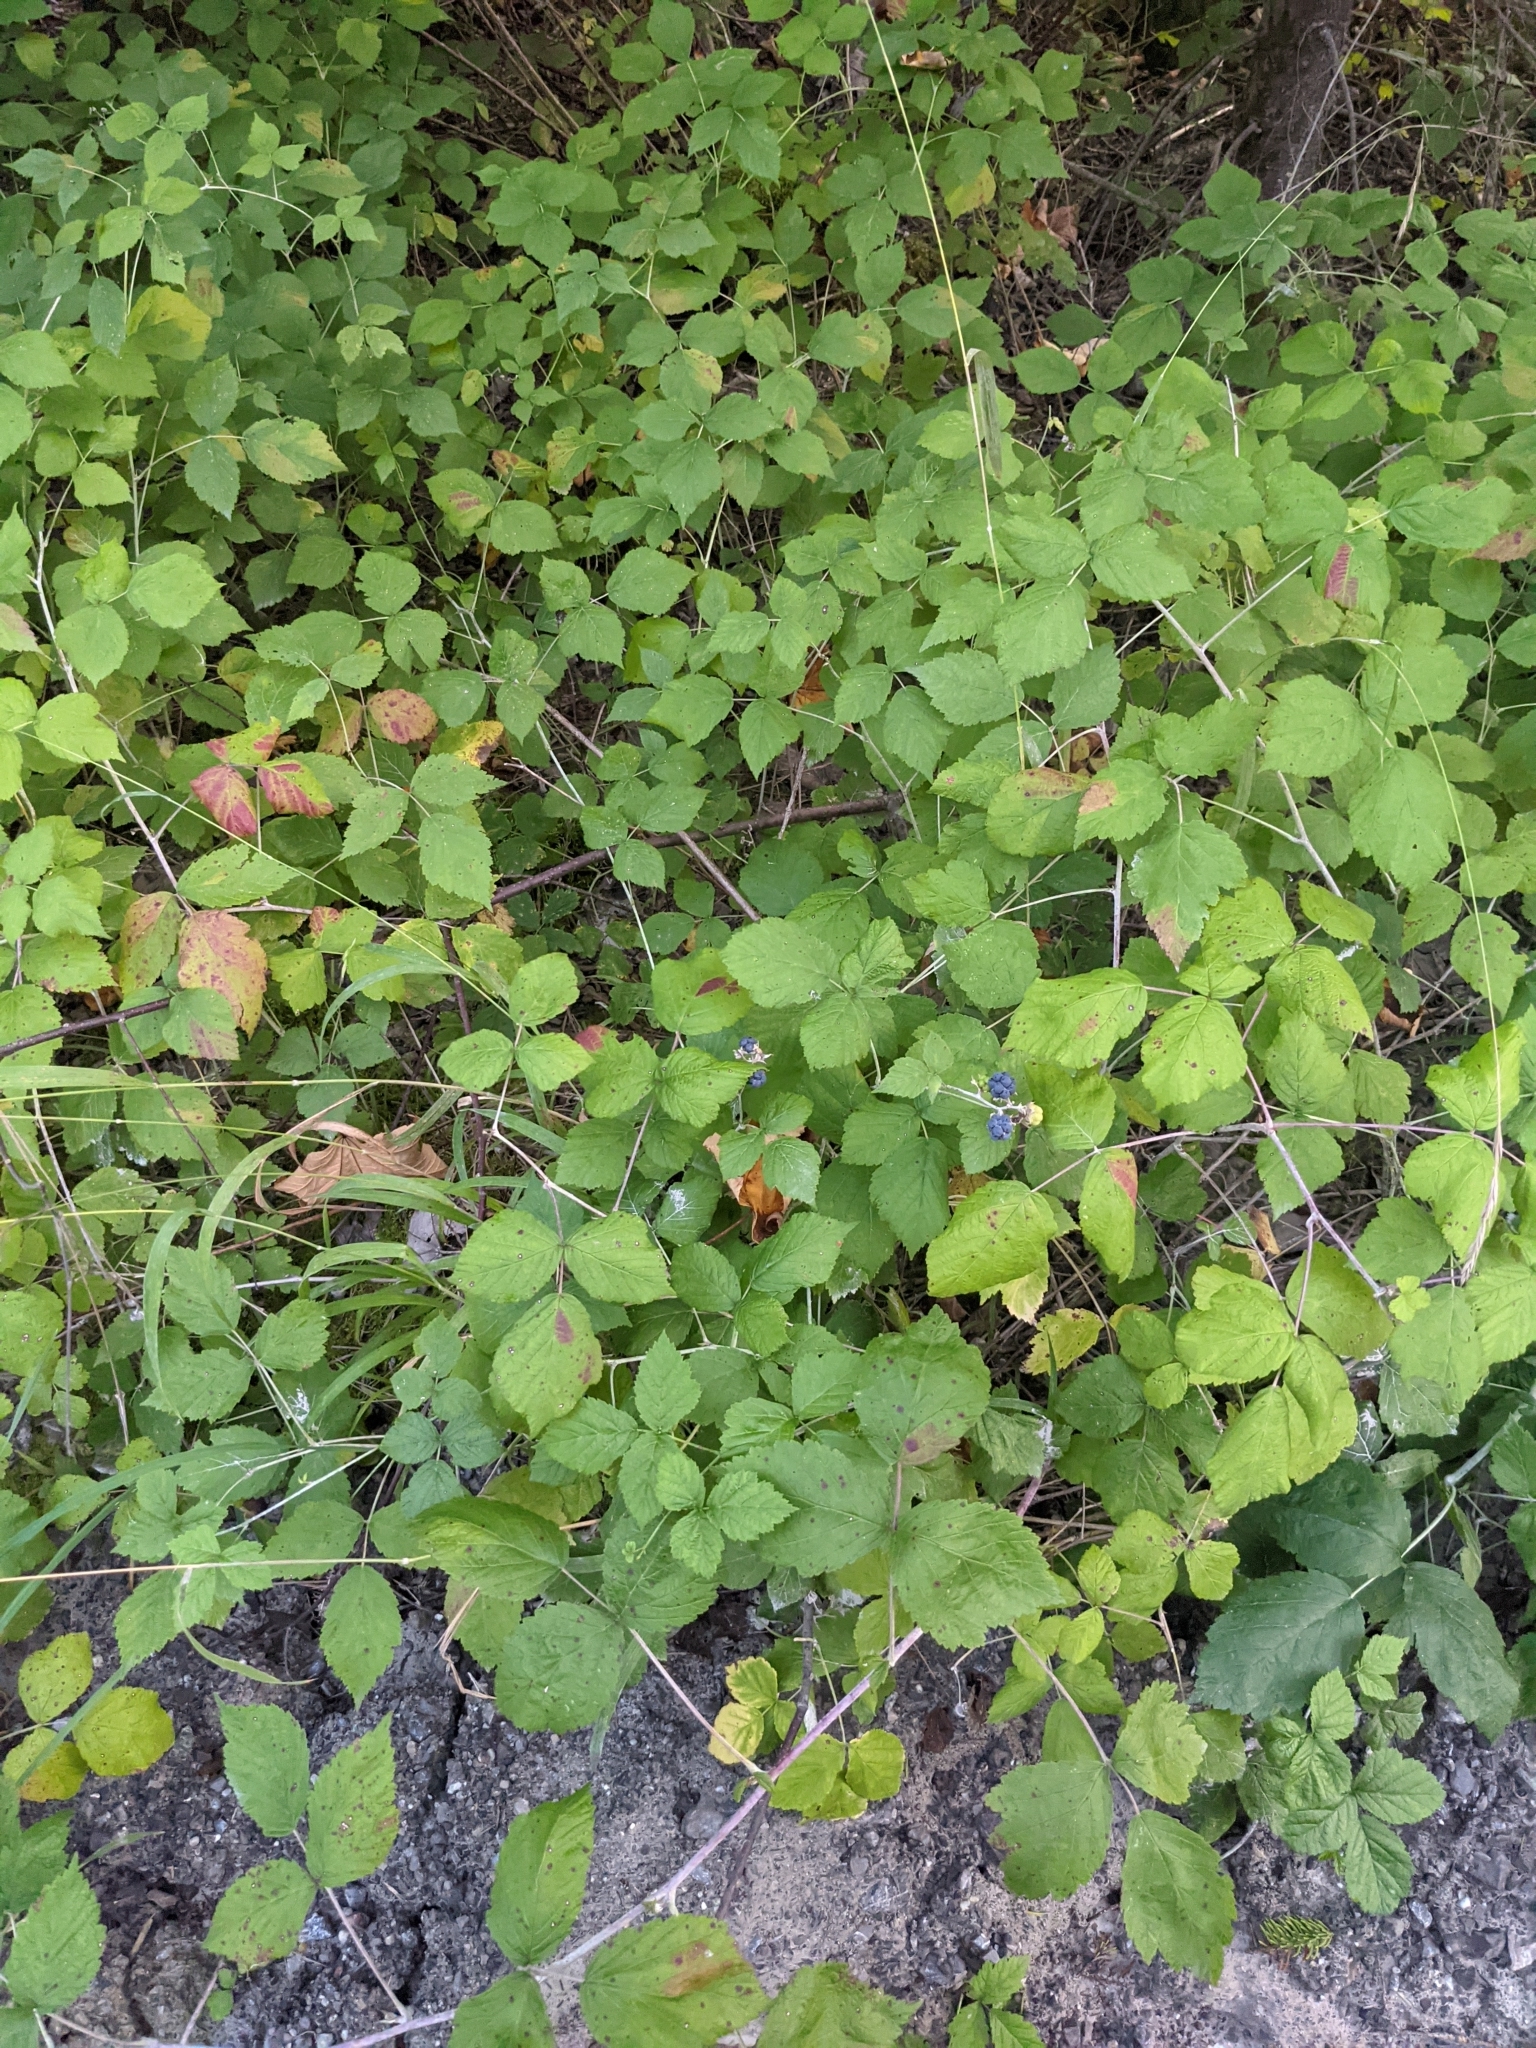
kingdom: Plantae
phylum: Tracheophyta
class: Magnoliopsida
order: Rosales
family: Rosaceae
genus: Rubus
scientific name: Rubus caesius
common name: Dewberry
